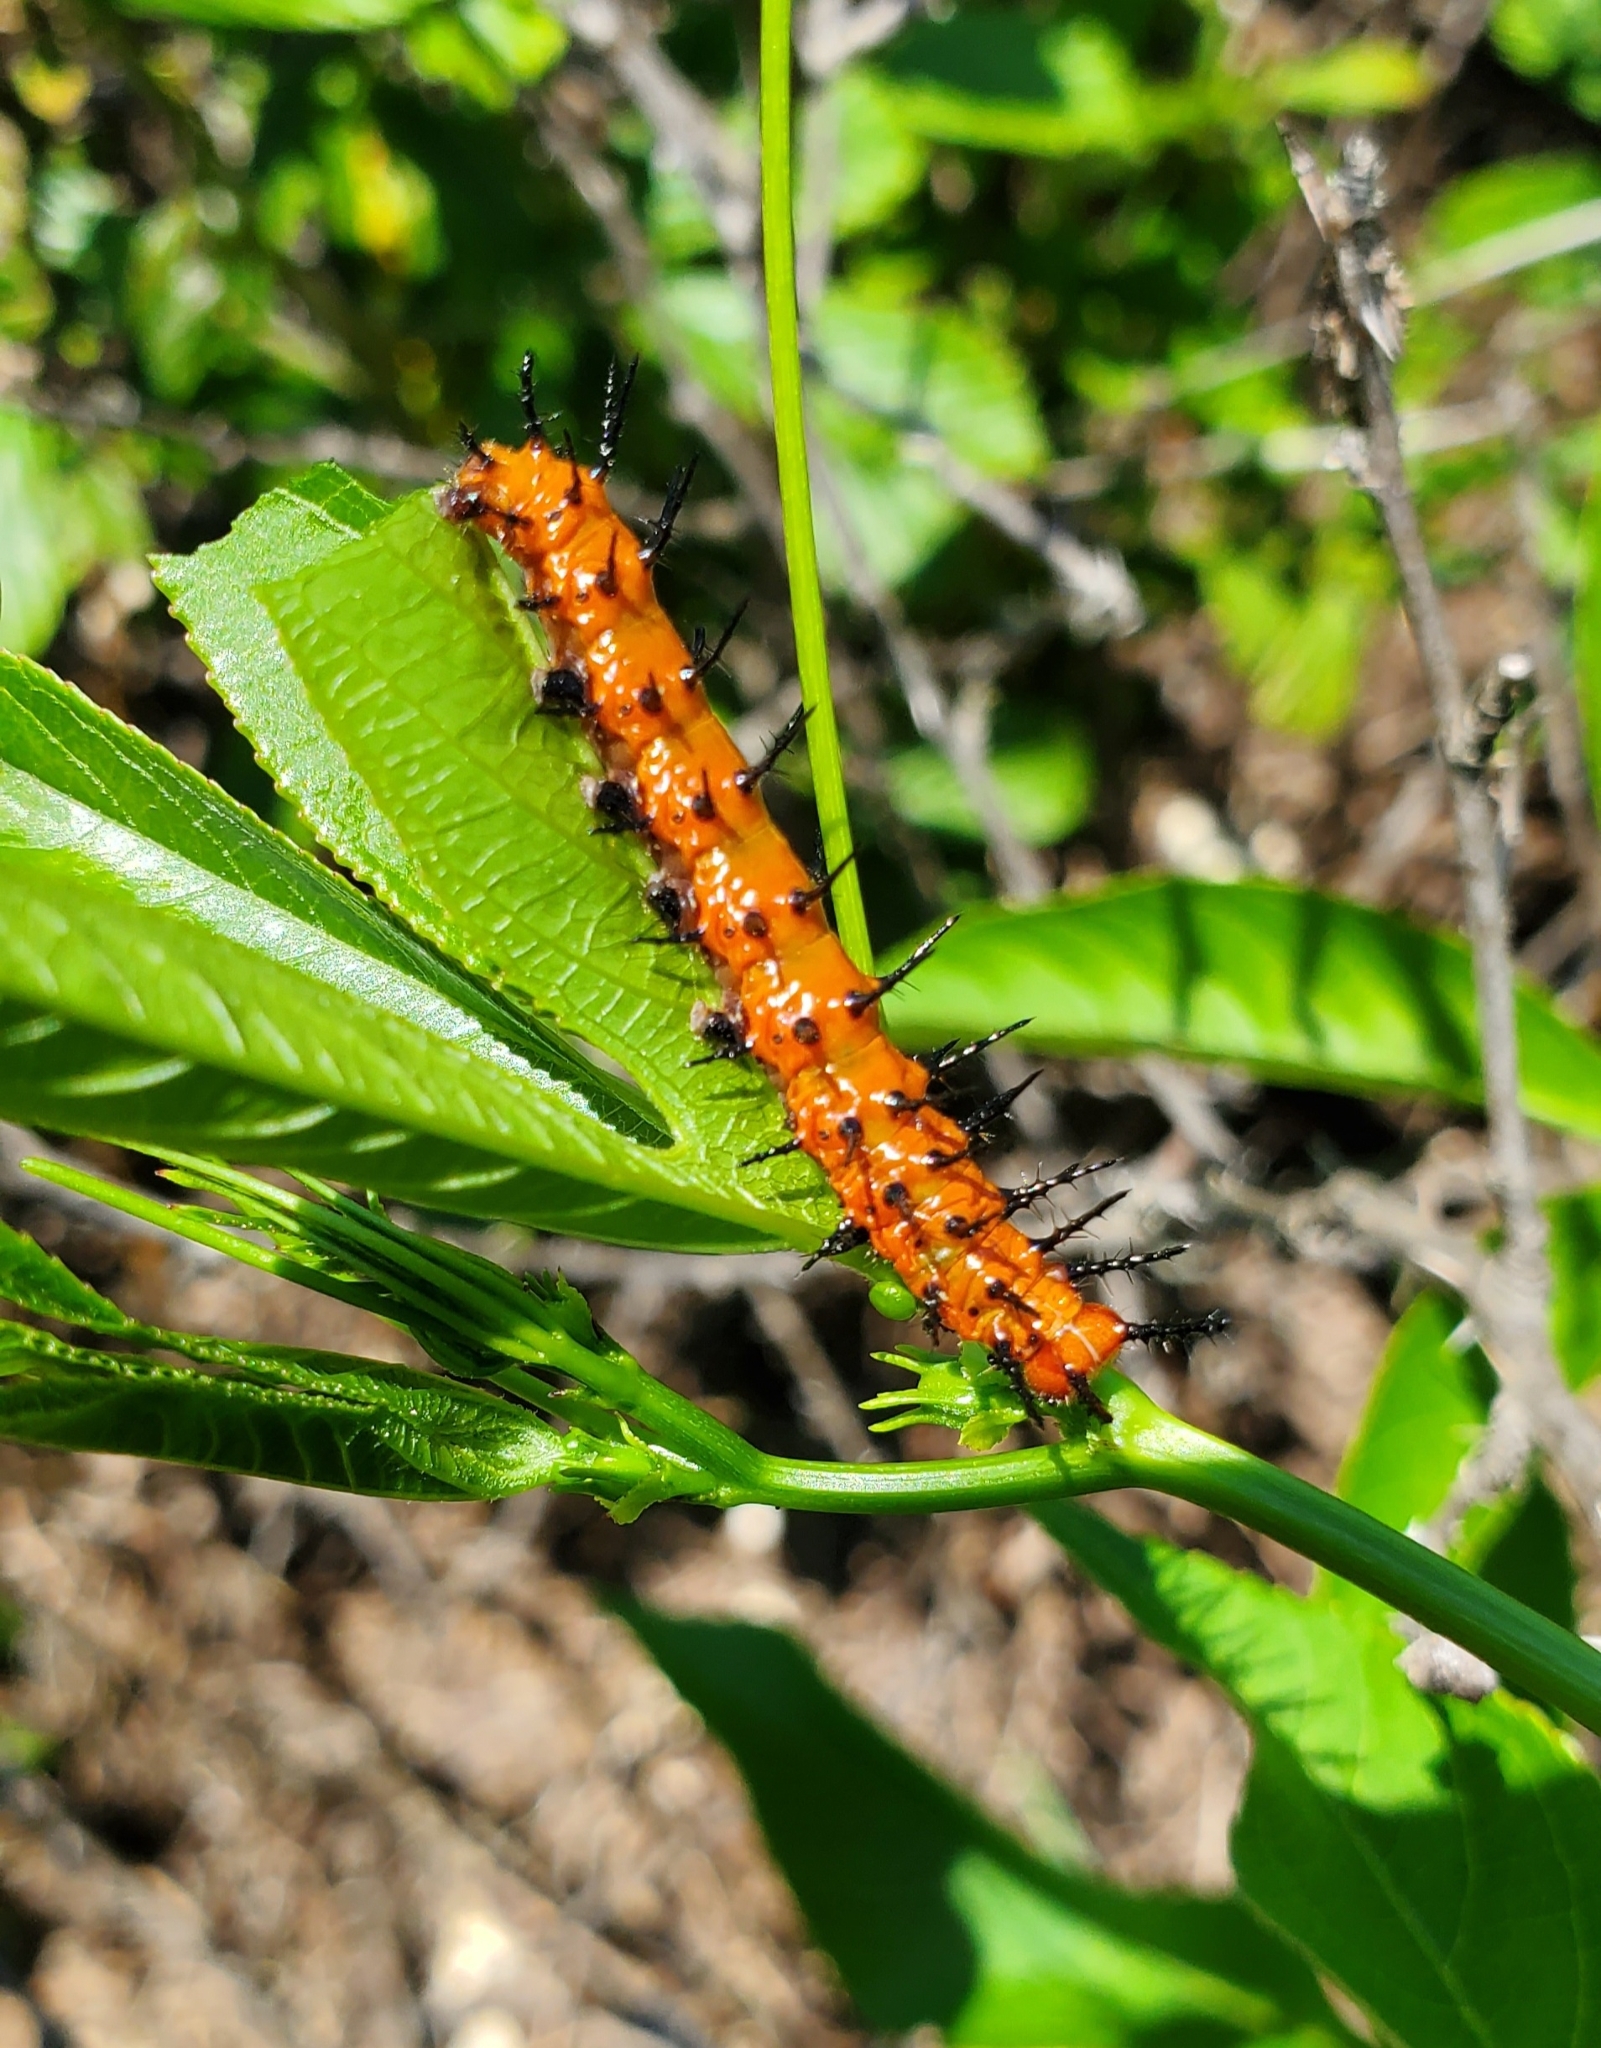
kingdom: Animalia
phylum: Arthropoda
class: Insecta
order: Lepidoptera
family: Nymphalidae
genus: Dione
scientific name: Dione vanillae
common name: Gulf fritillary
